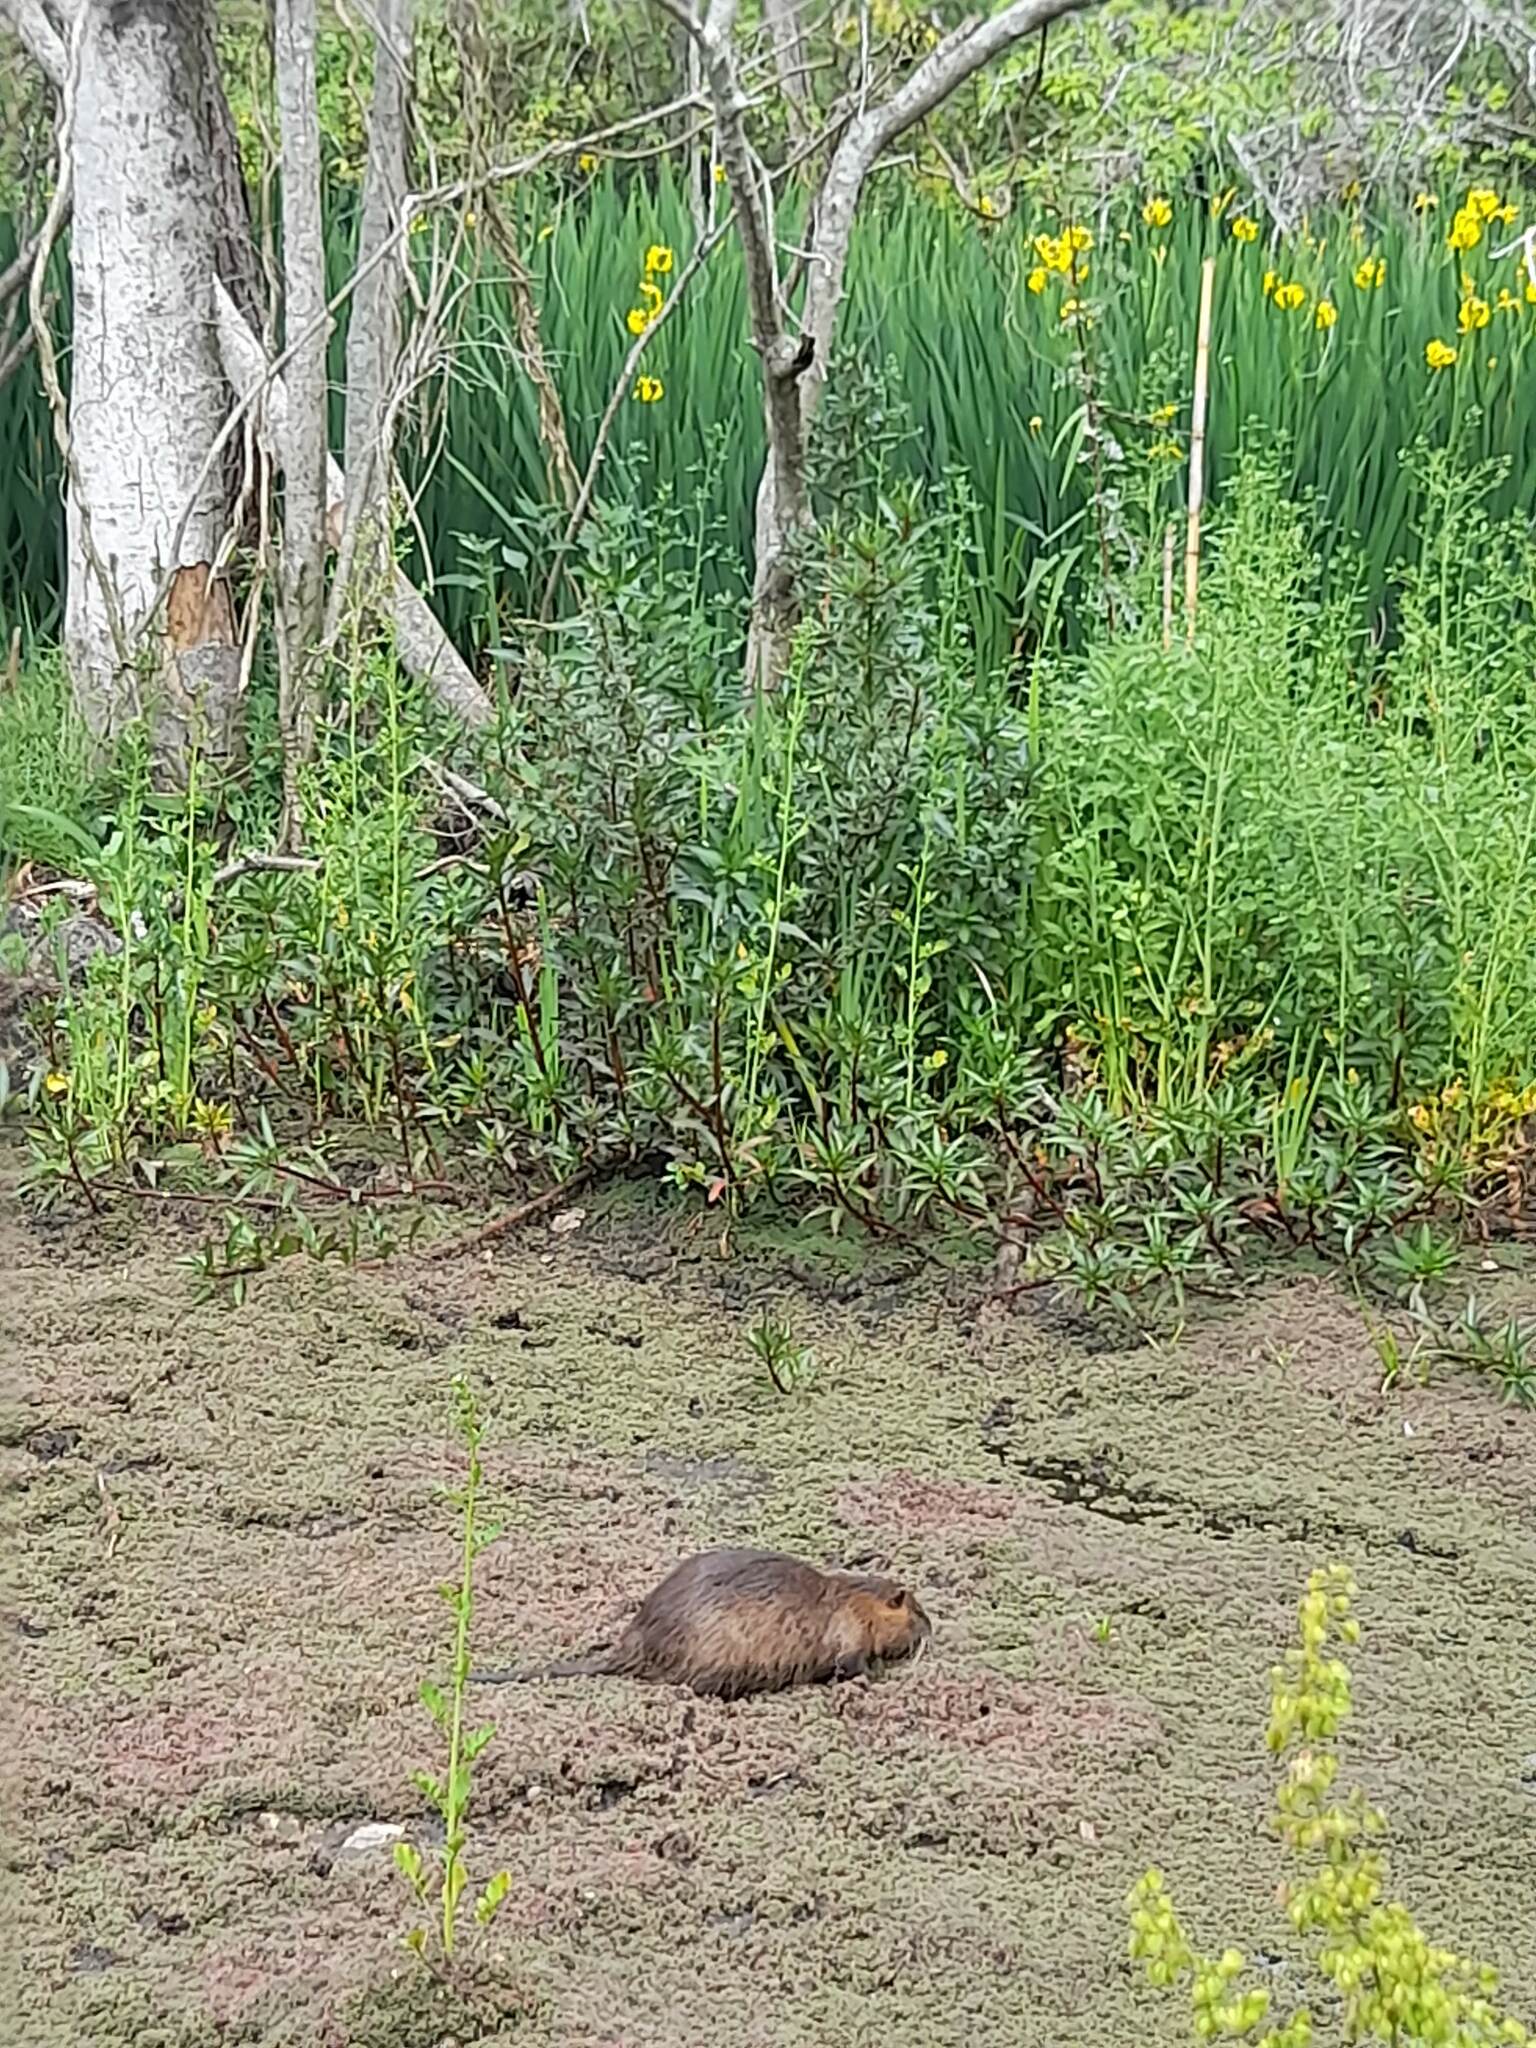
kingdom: Animalia
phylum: Chordata
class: Mammalia
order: Rodentia
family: Myocastoridae
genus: Myocastor
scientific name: Myocastor coypus
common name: Coypu
